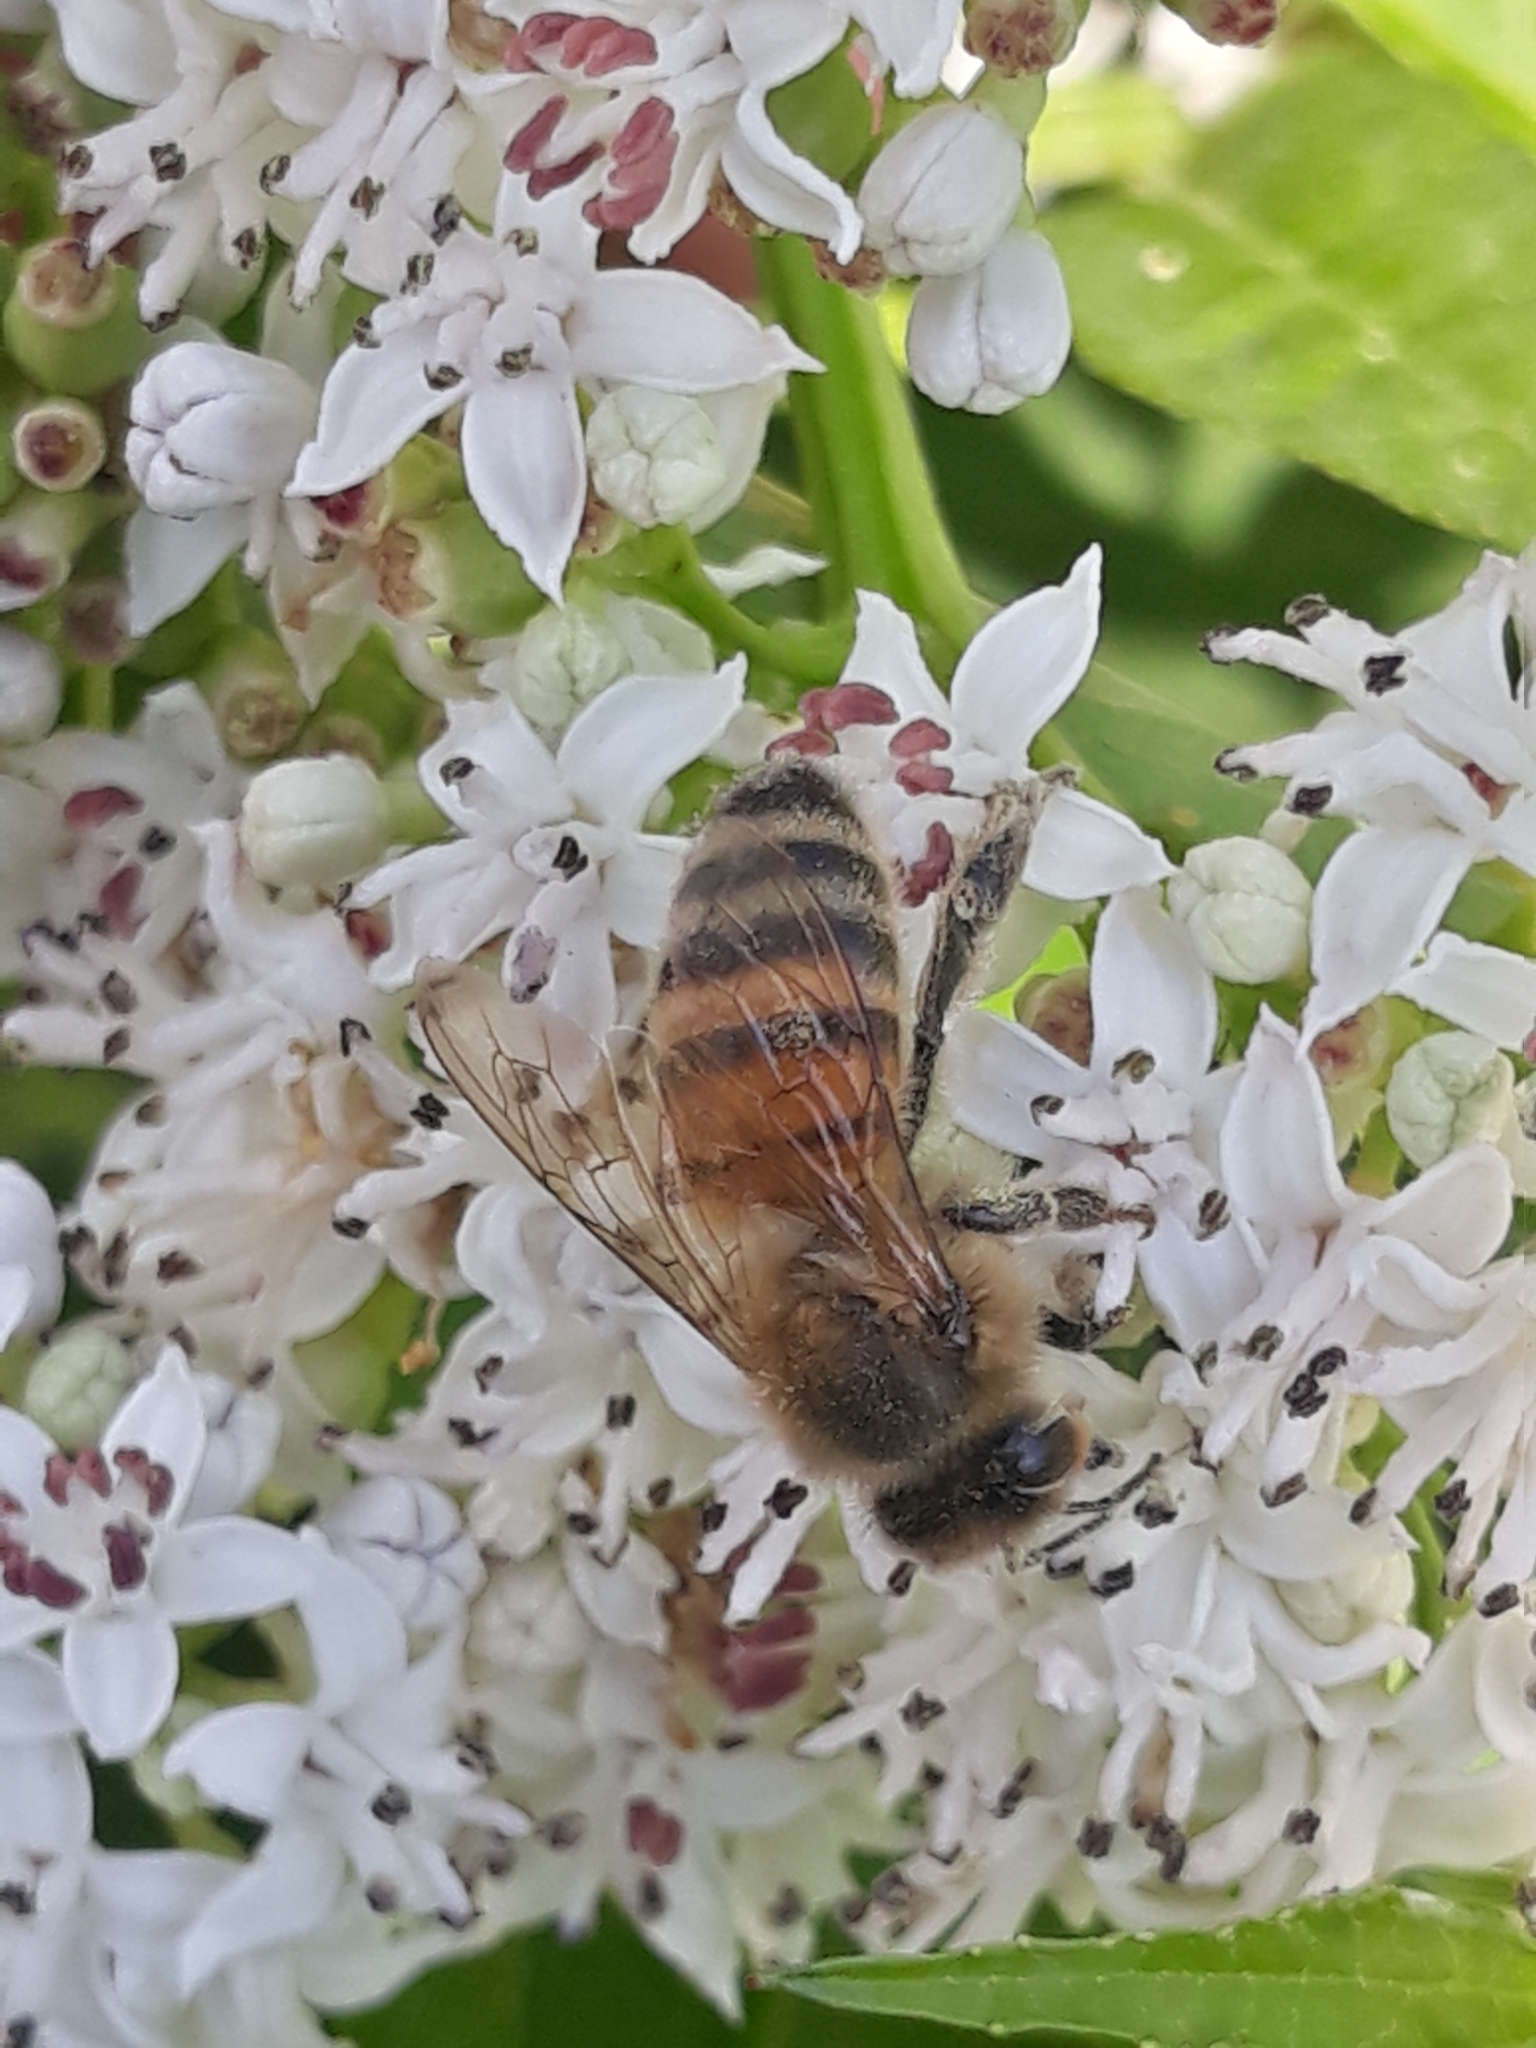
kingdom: Animalia
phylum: Arthropoda
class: Insecta
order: Hymenoptera
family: Apidae
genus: Apis
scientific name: Apis mellifera
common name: Honey bee
